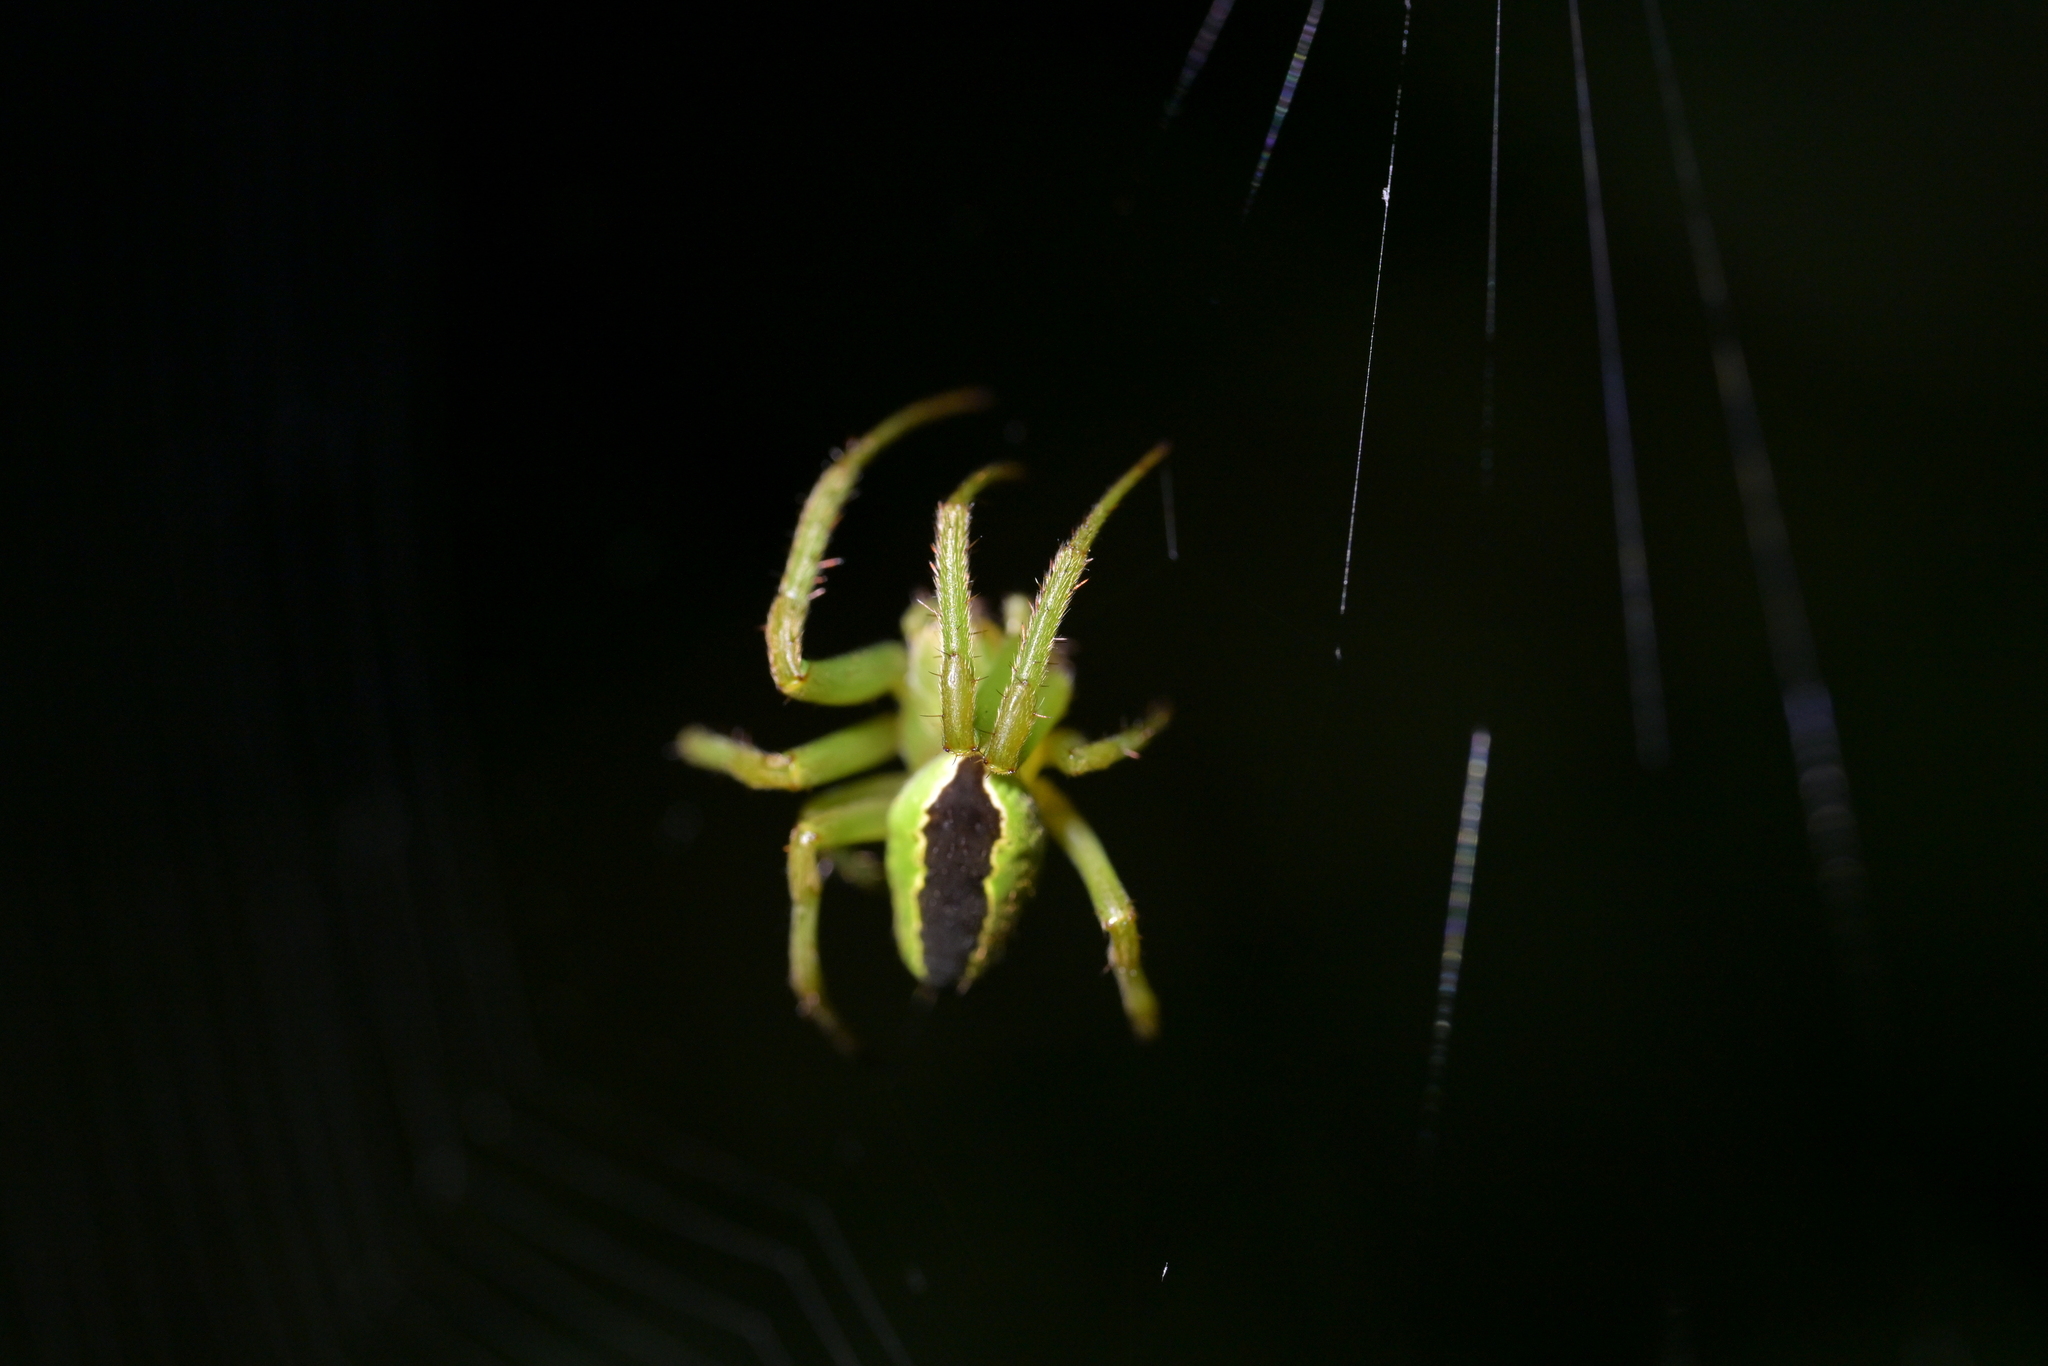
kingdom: Animalia
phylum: Arthropoda
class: Arachnida
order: Araneae
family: Araneidae
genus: Colaranea
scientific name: Colaranea melanoviridis
